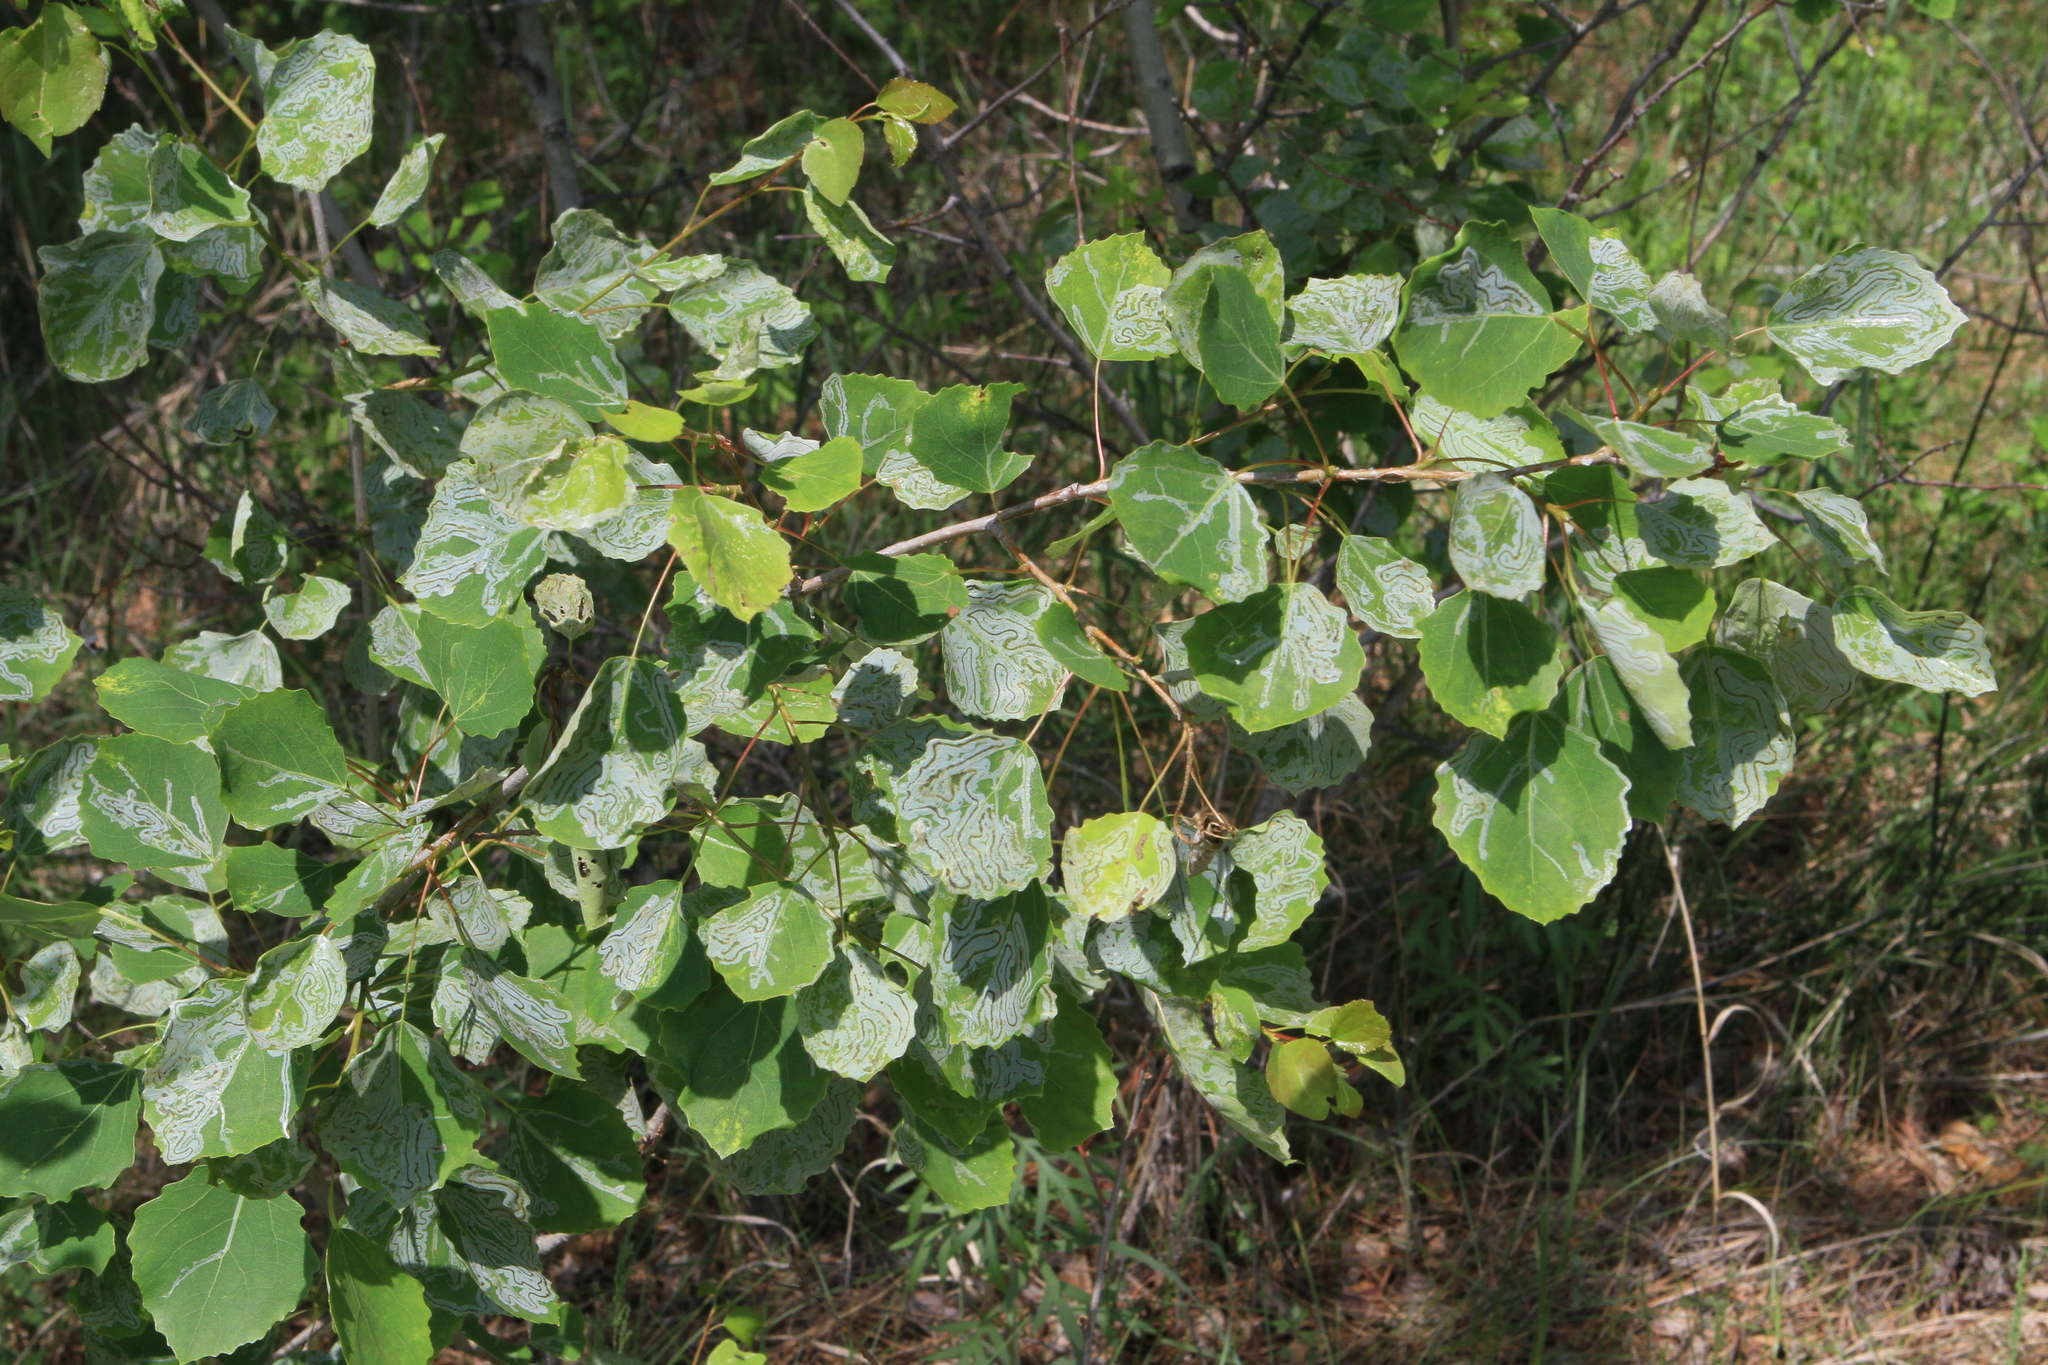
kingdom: Plantae
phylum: Tracheophyta
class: Magnoliopsida
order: Malpighiales
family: Salicaceae
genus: Populus
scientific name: Populus tremula
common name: European aspen
